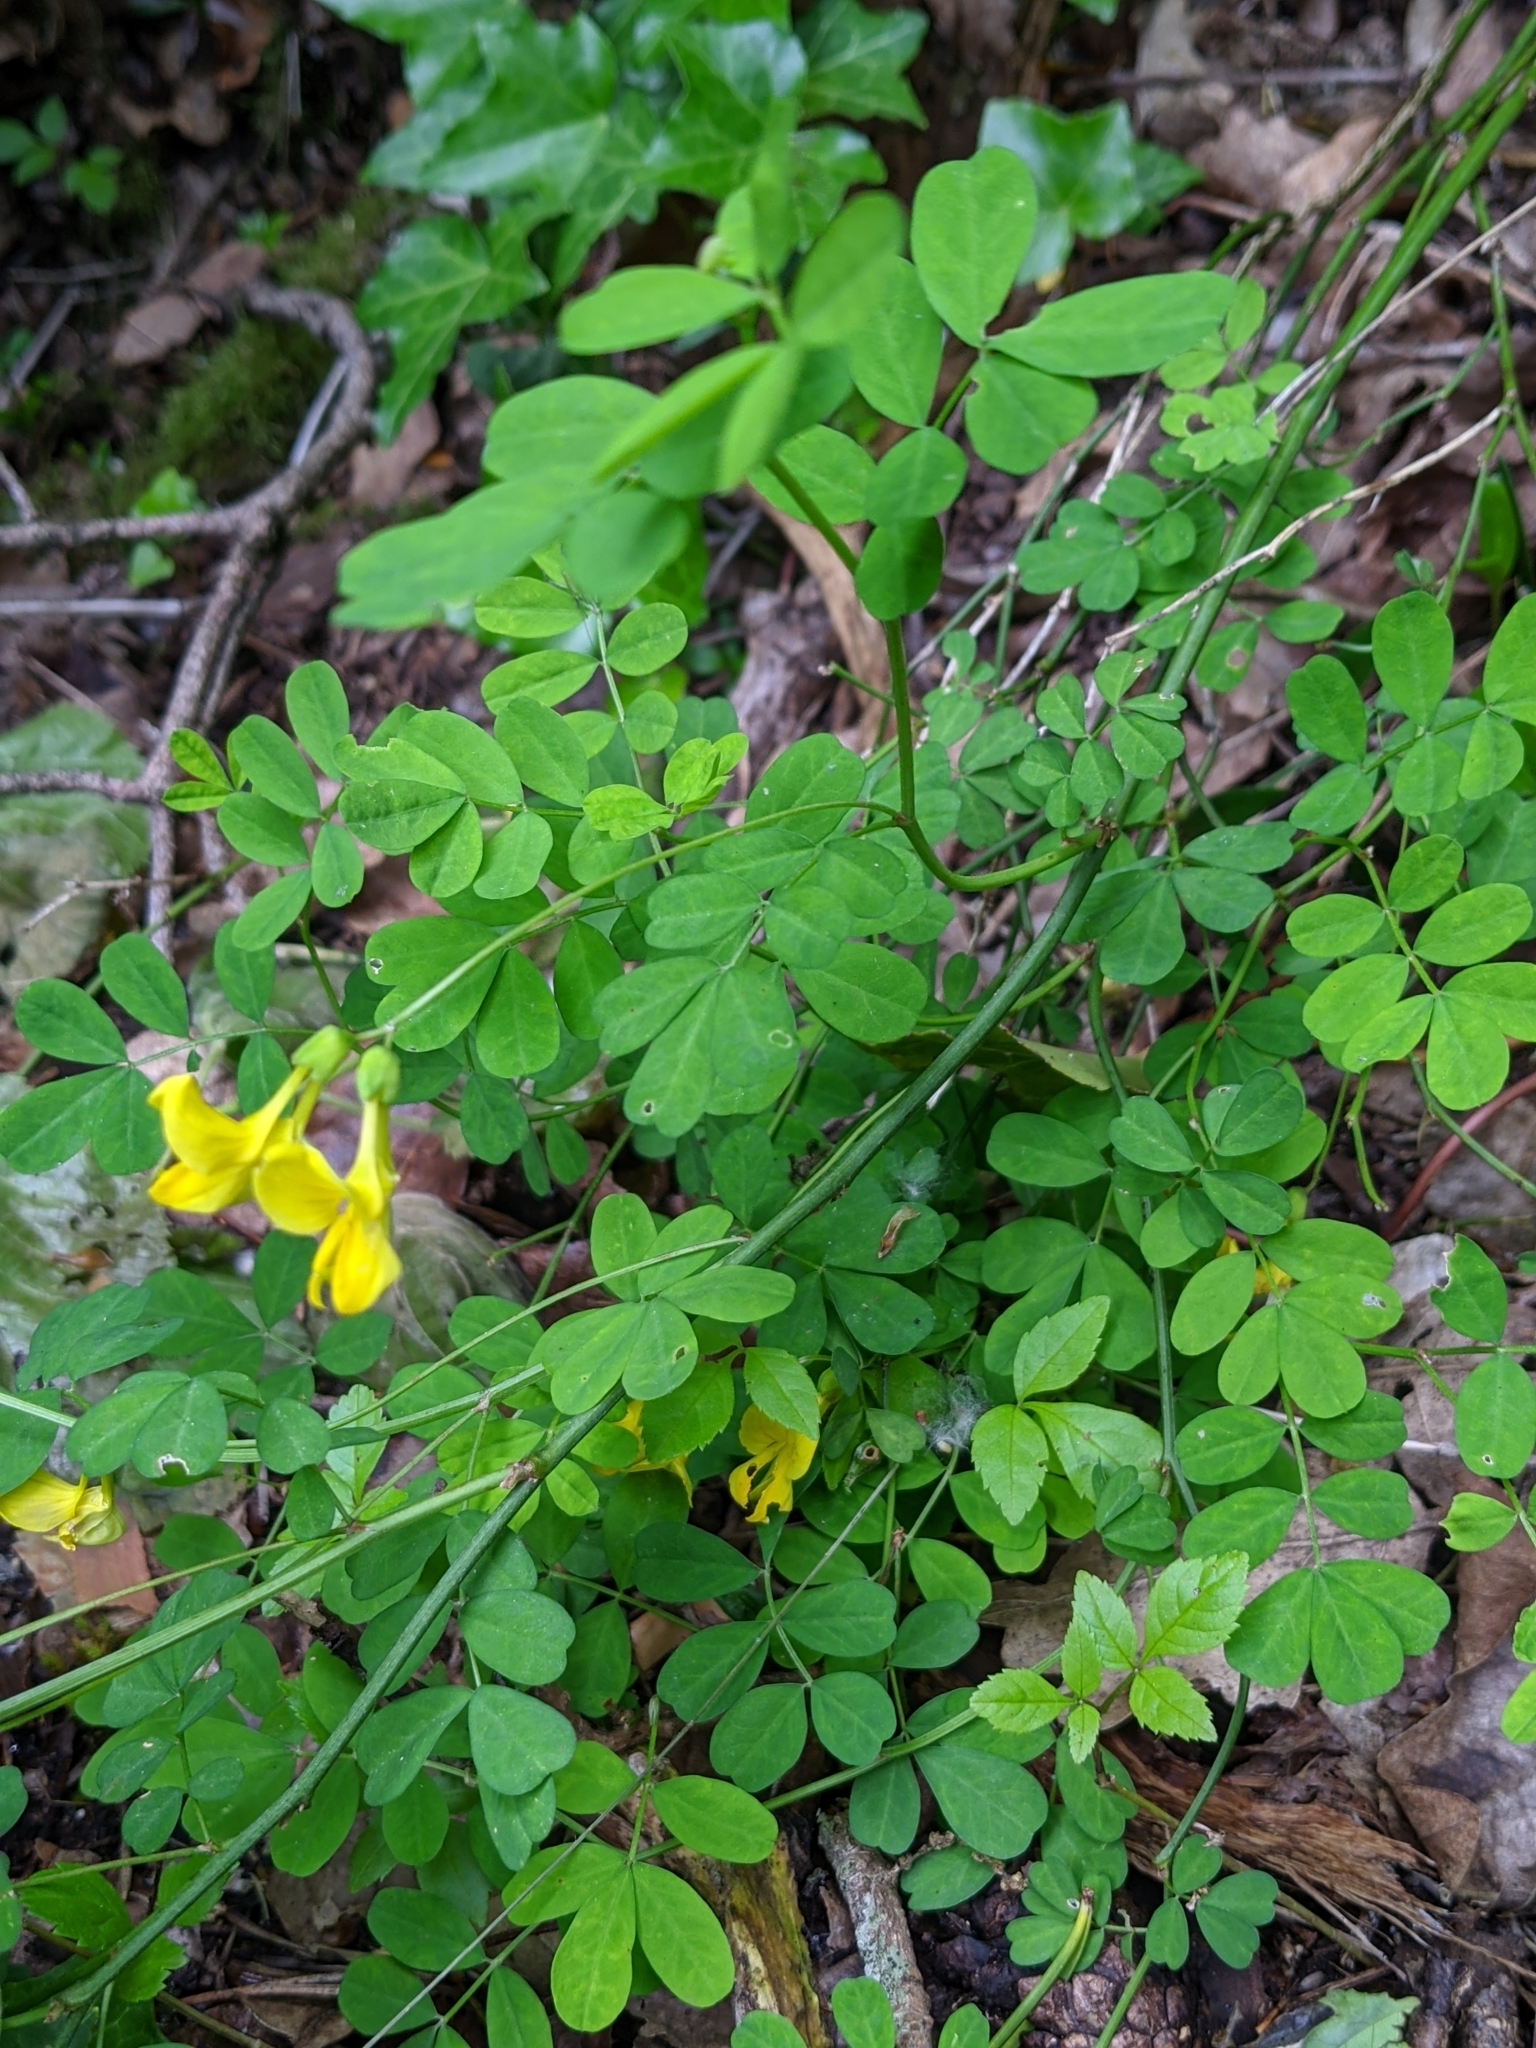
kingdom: Plantae
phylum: Tracheophyta
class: Magnoliopsida
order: Fabales
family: Fabaceae
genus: Hippocrepis
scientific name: Hippocrepis emerus
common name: Scorpion senna
